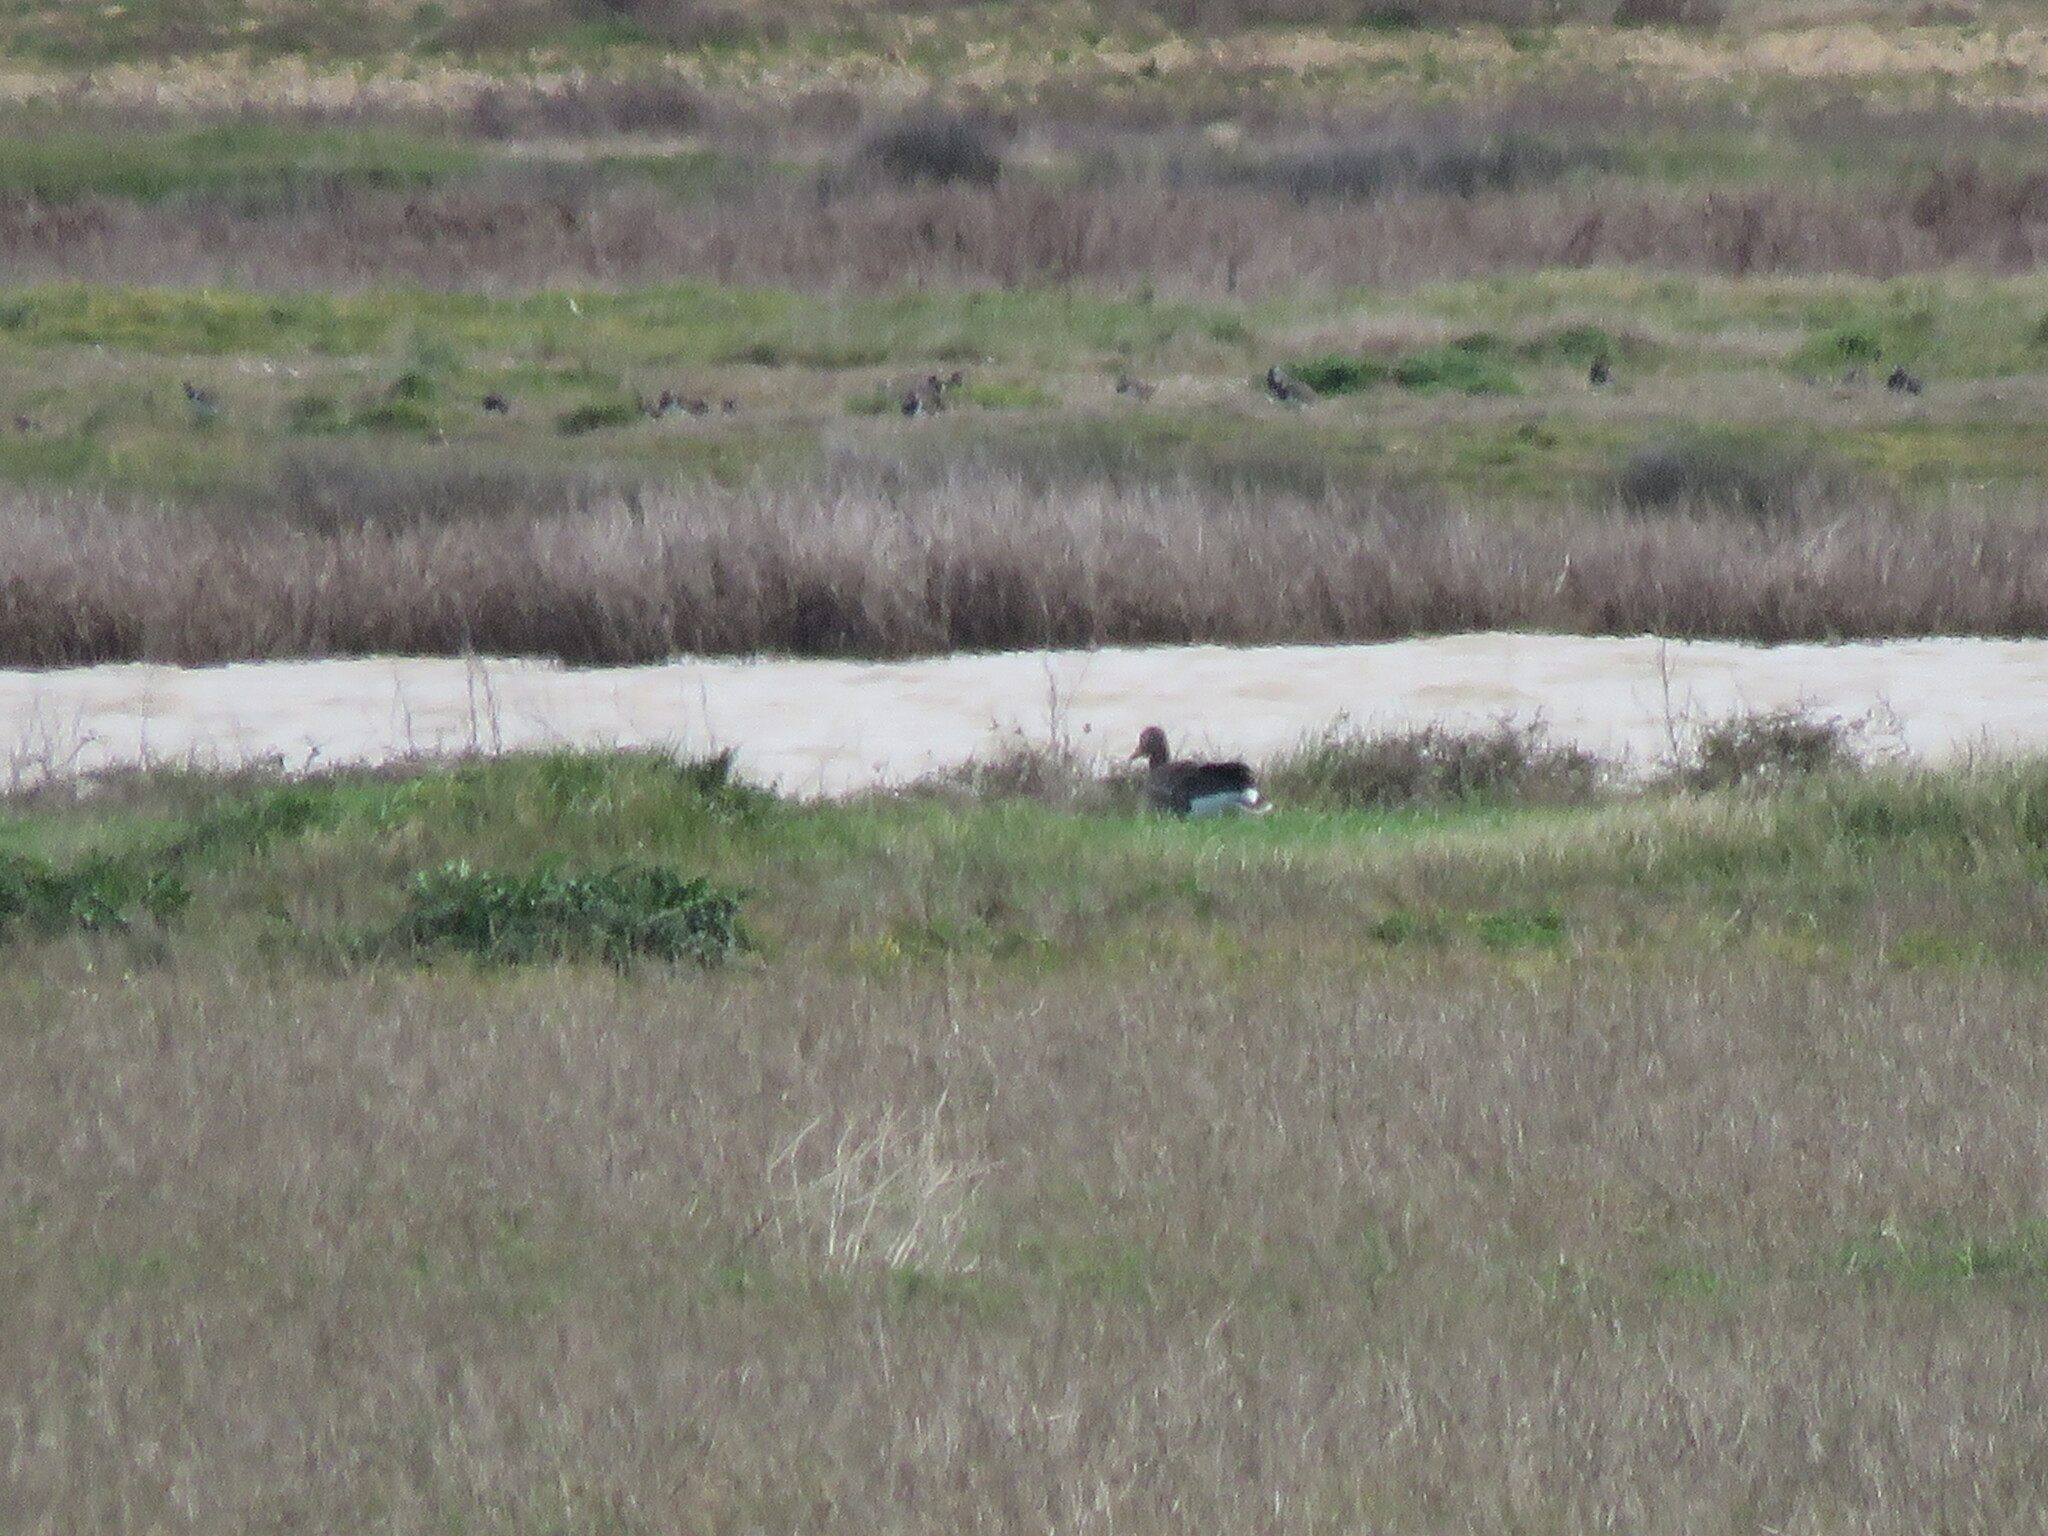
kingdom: Animalia
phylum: Chordata
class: Aves
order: Anseriformes
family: Anatidae
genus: Anser
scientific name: Anser anser
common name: Greylag goose
